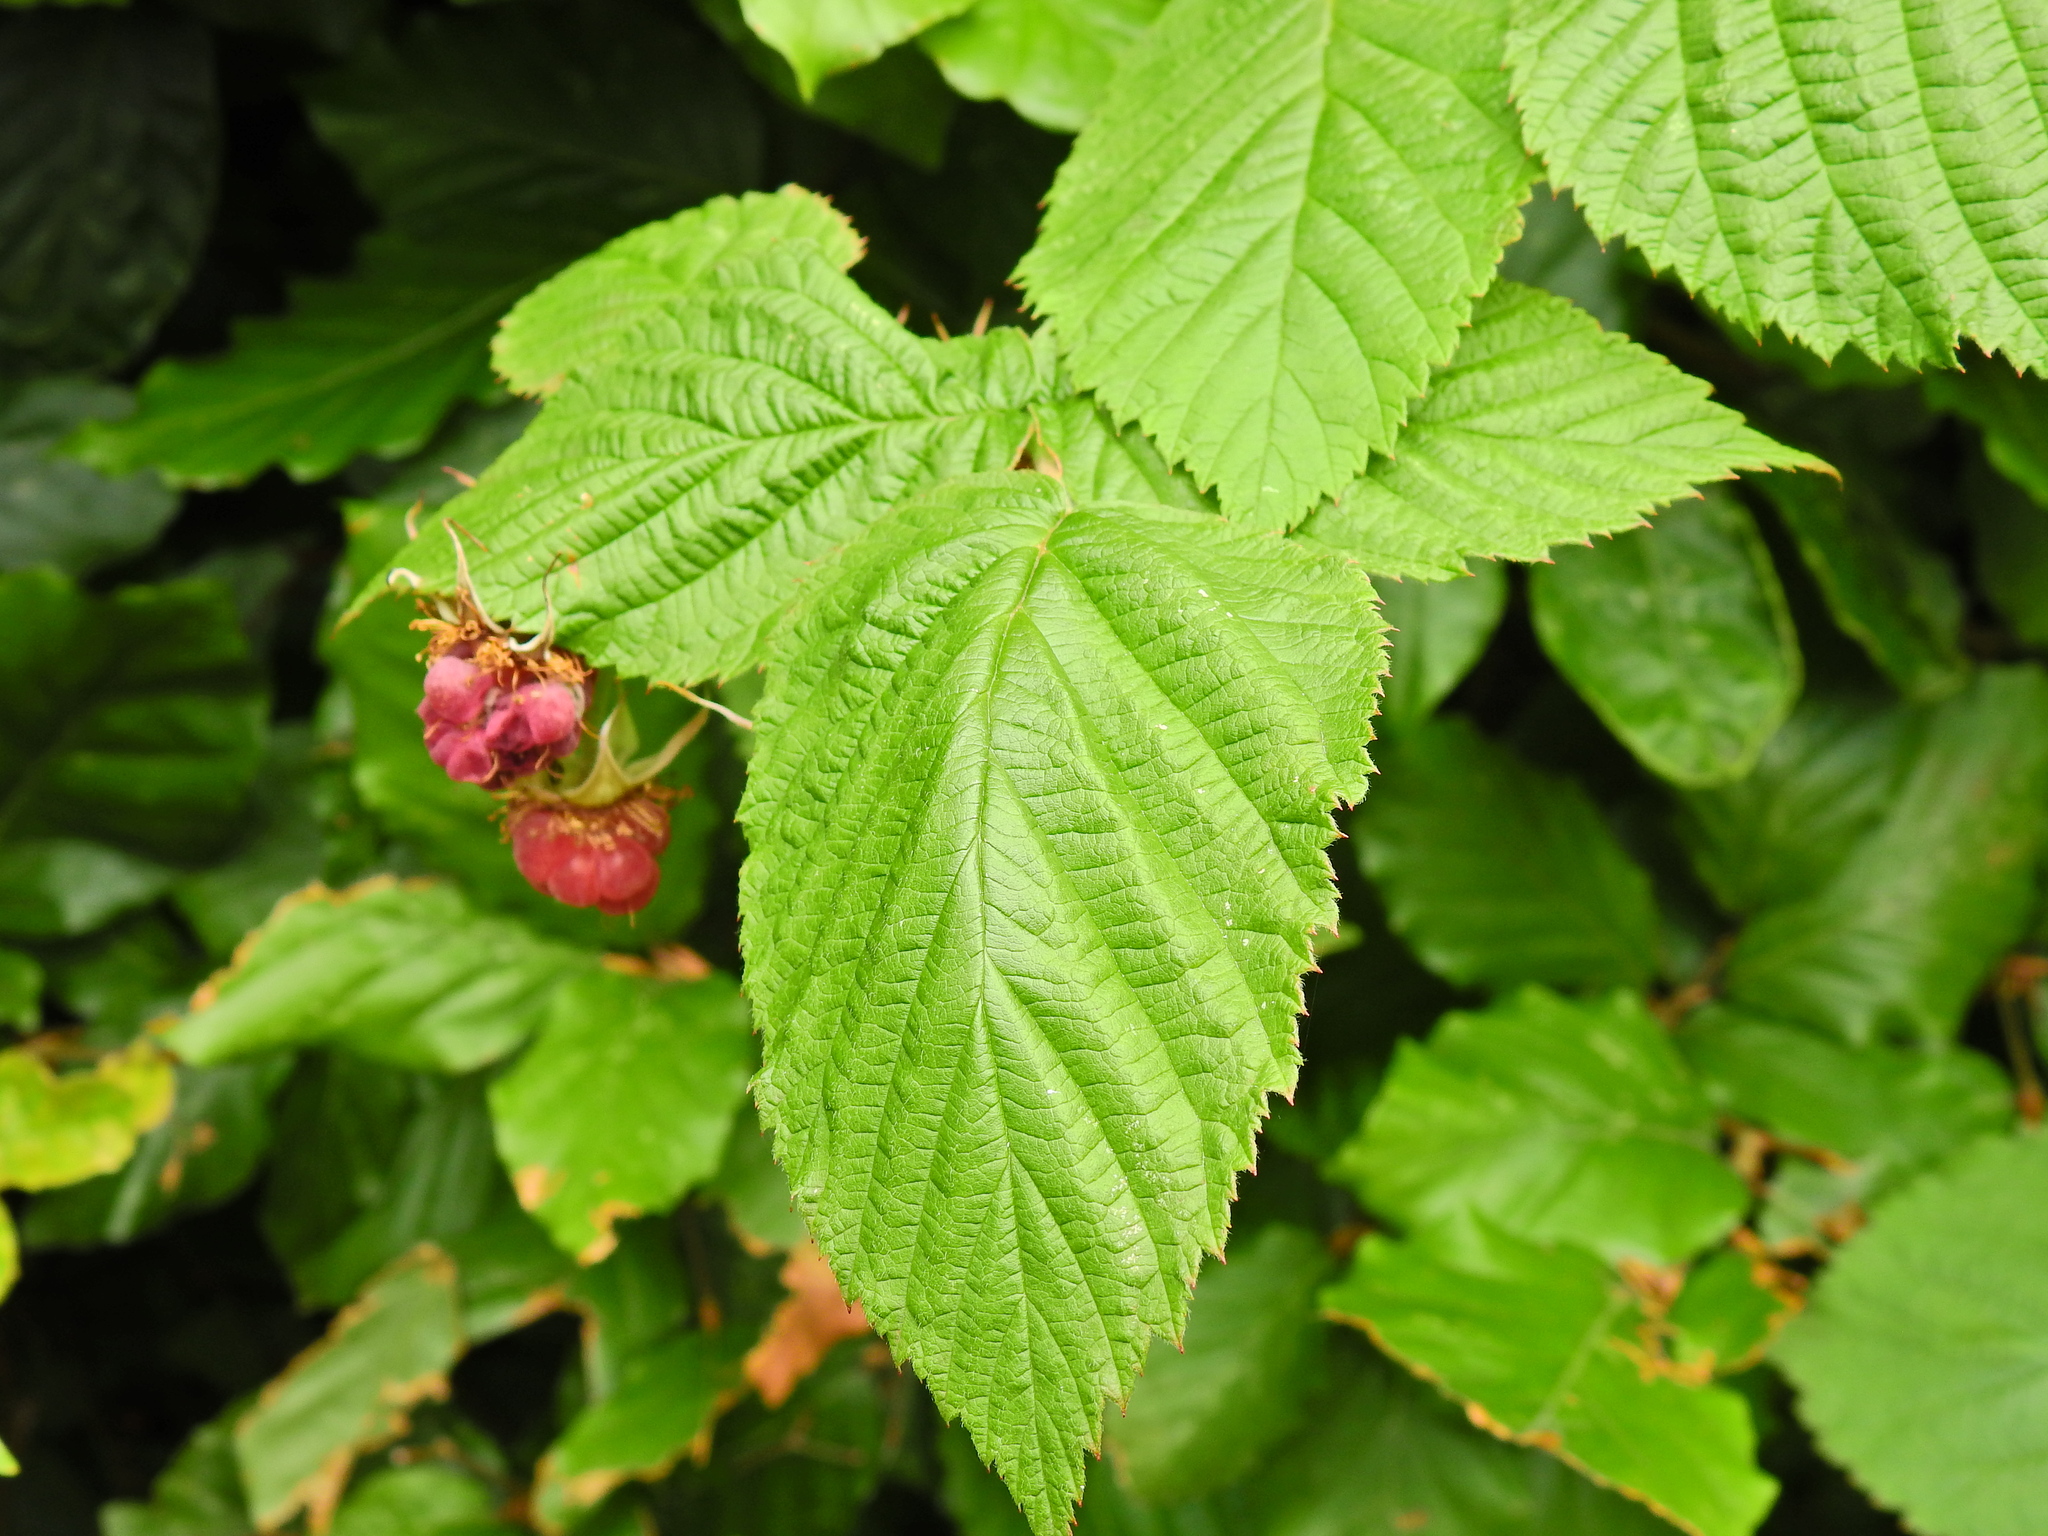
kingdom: Plantae
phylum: Tracheophyta
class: Magnoliopsida
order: Rosales
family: Rosaceae
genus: Rubus
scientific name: Rubus idaeus
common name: Raspberry
